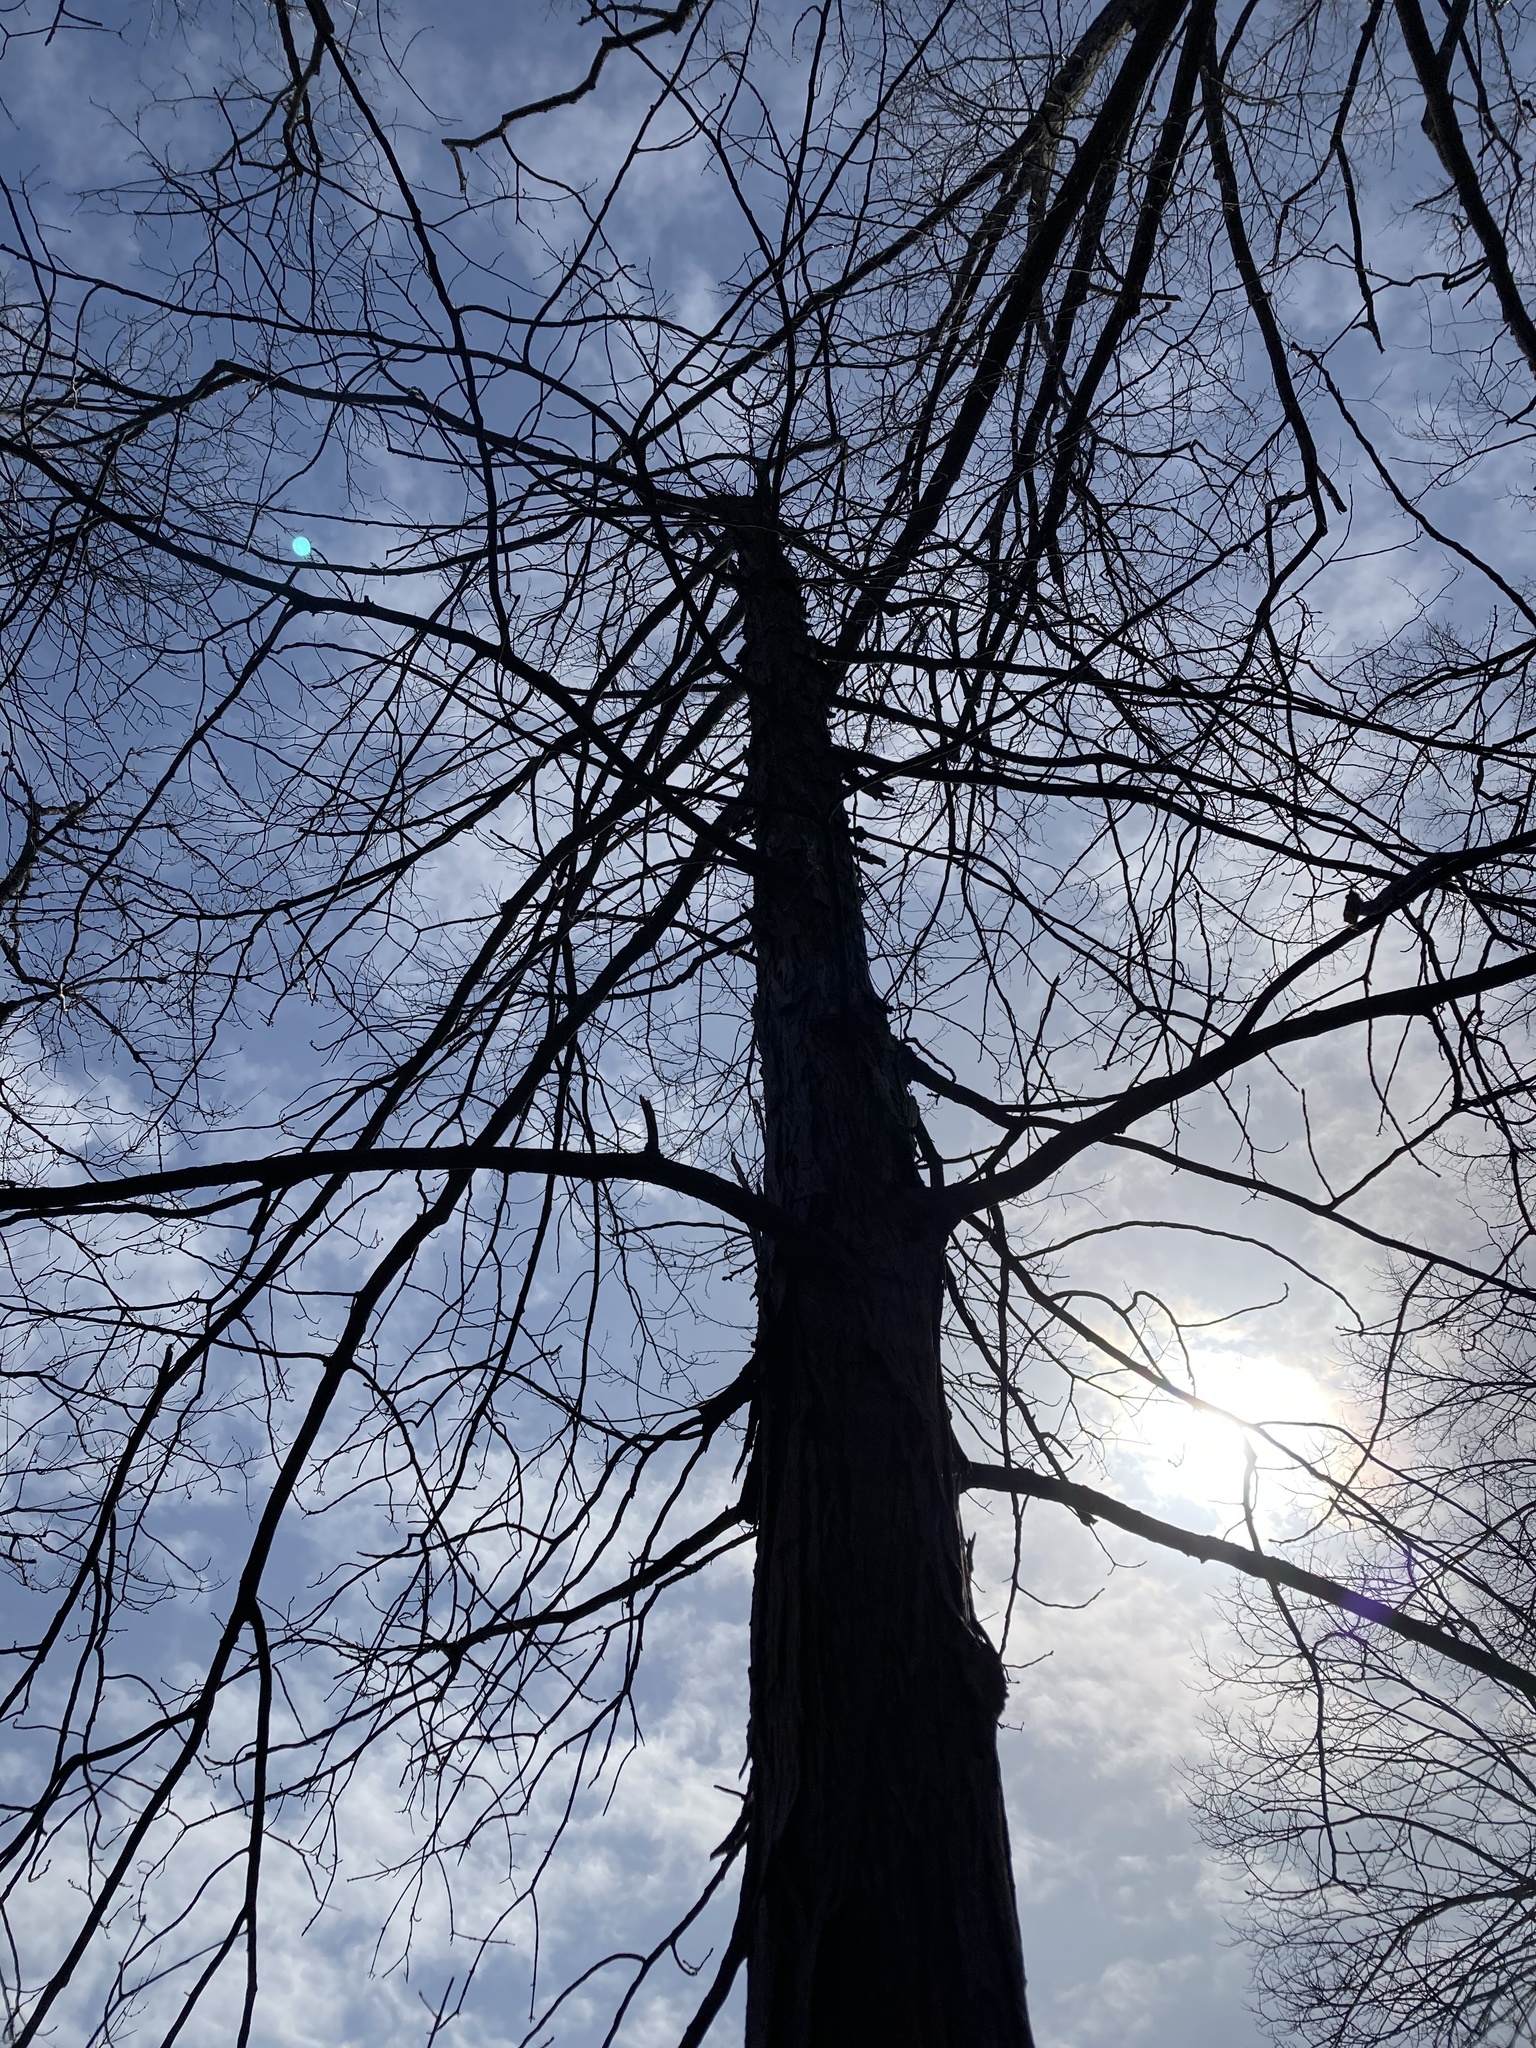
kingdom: Plantae
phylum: Tracheophyta
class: Magnoliopsida
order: Fagales
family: Juglandaceae
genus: Carya
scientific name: Carya ovata
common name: Shagbark hickory
